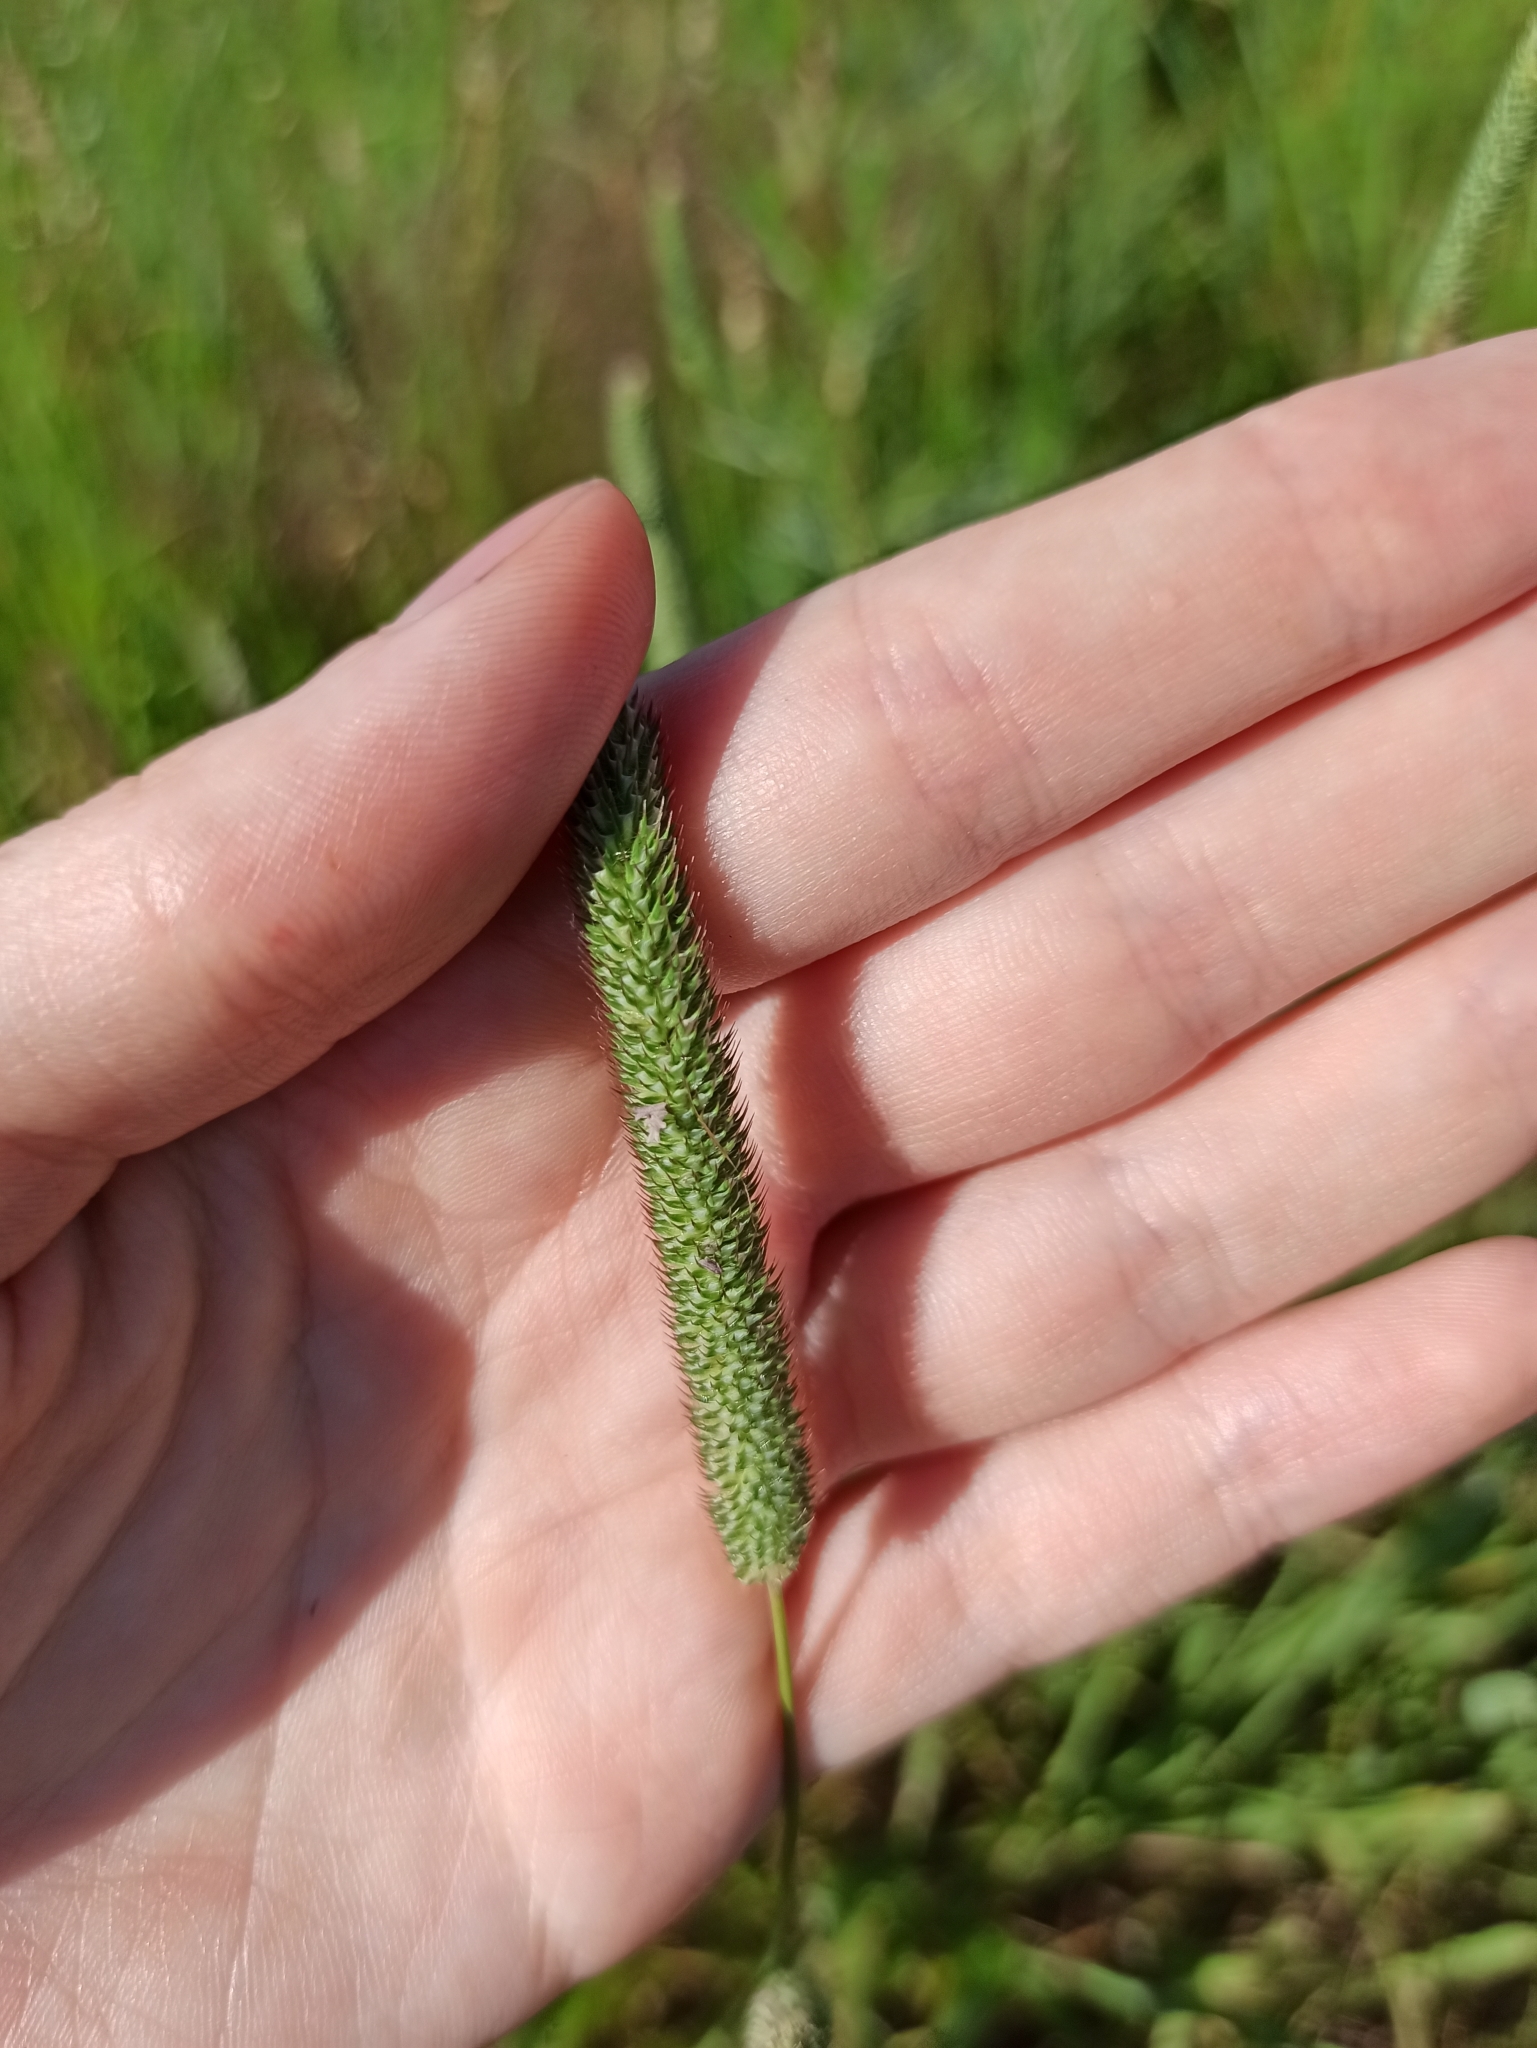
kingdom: Plantae
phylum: Tracheophyta
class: Liliopsida
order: Poales
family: Poaceae
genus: Phleum
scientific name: Phleum pratense
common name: Timothy grass
